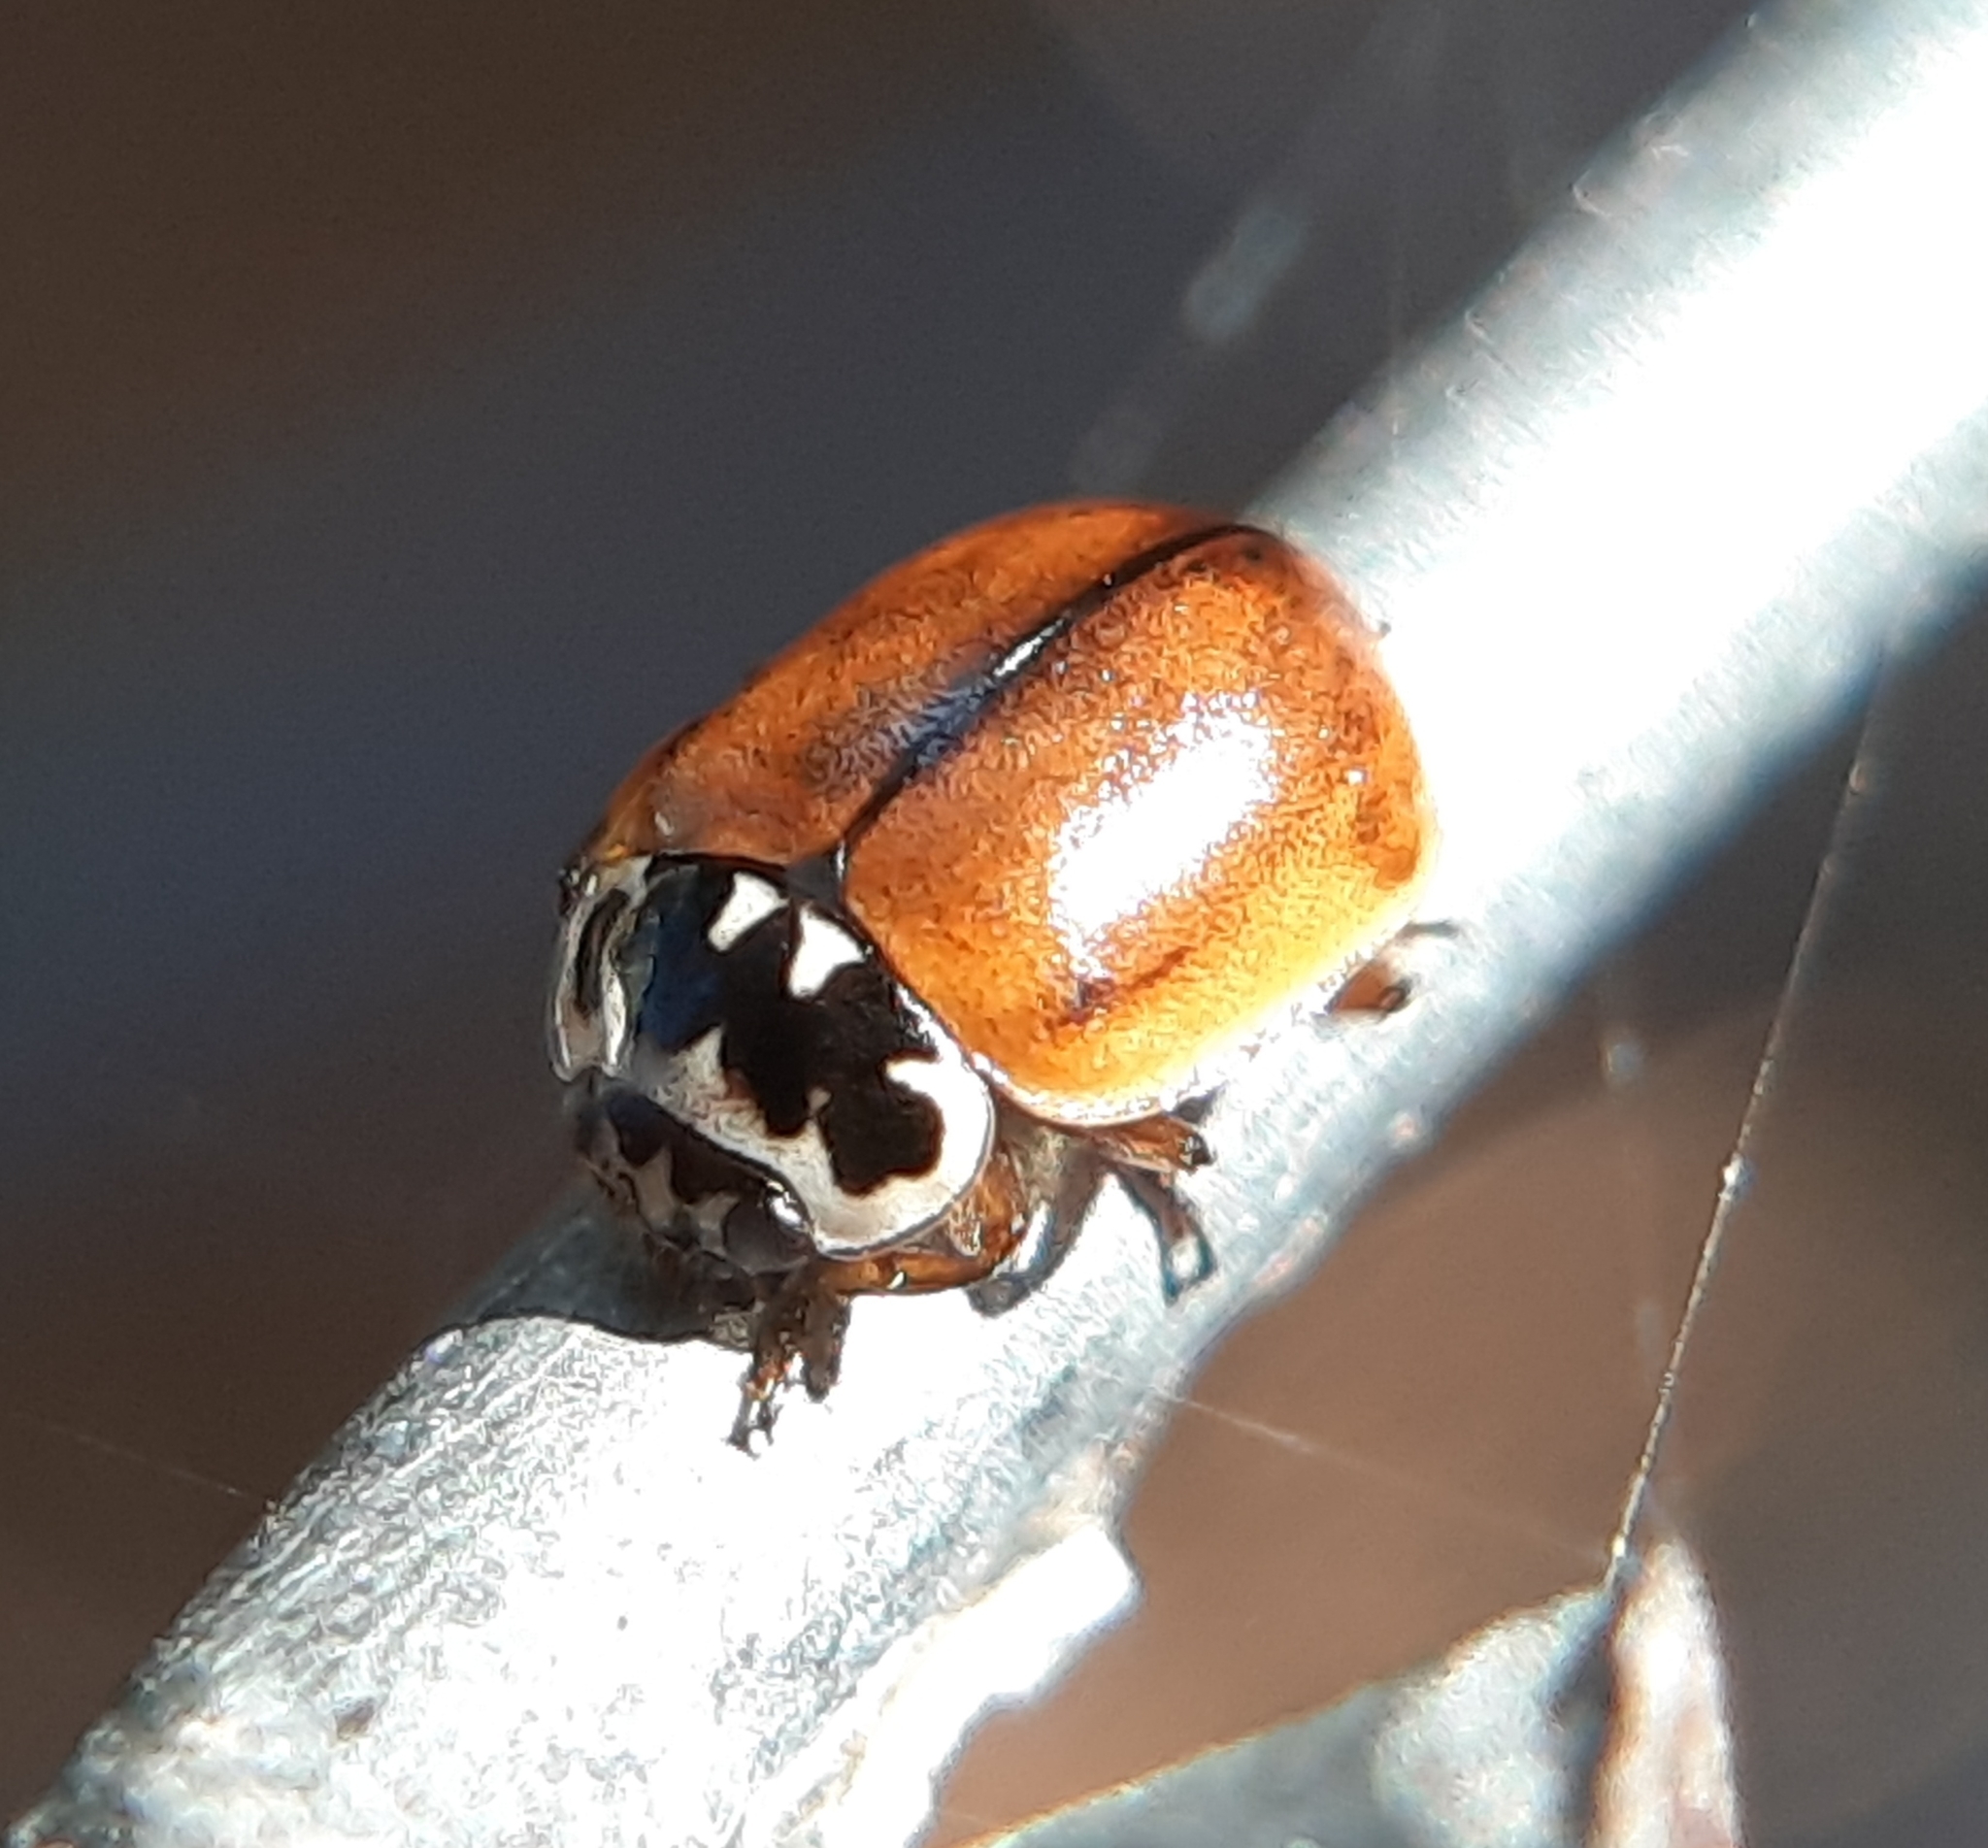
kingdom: Animalia
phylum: Arthropoda
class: Insecta
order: Coleoptera
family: Coccinellidae
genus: Mulsantina
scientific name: Mulsantina picta
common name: Painted ladybird
